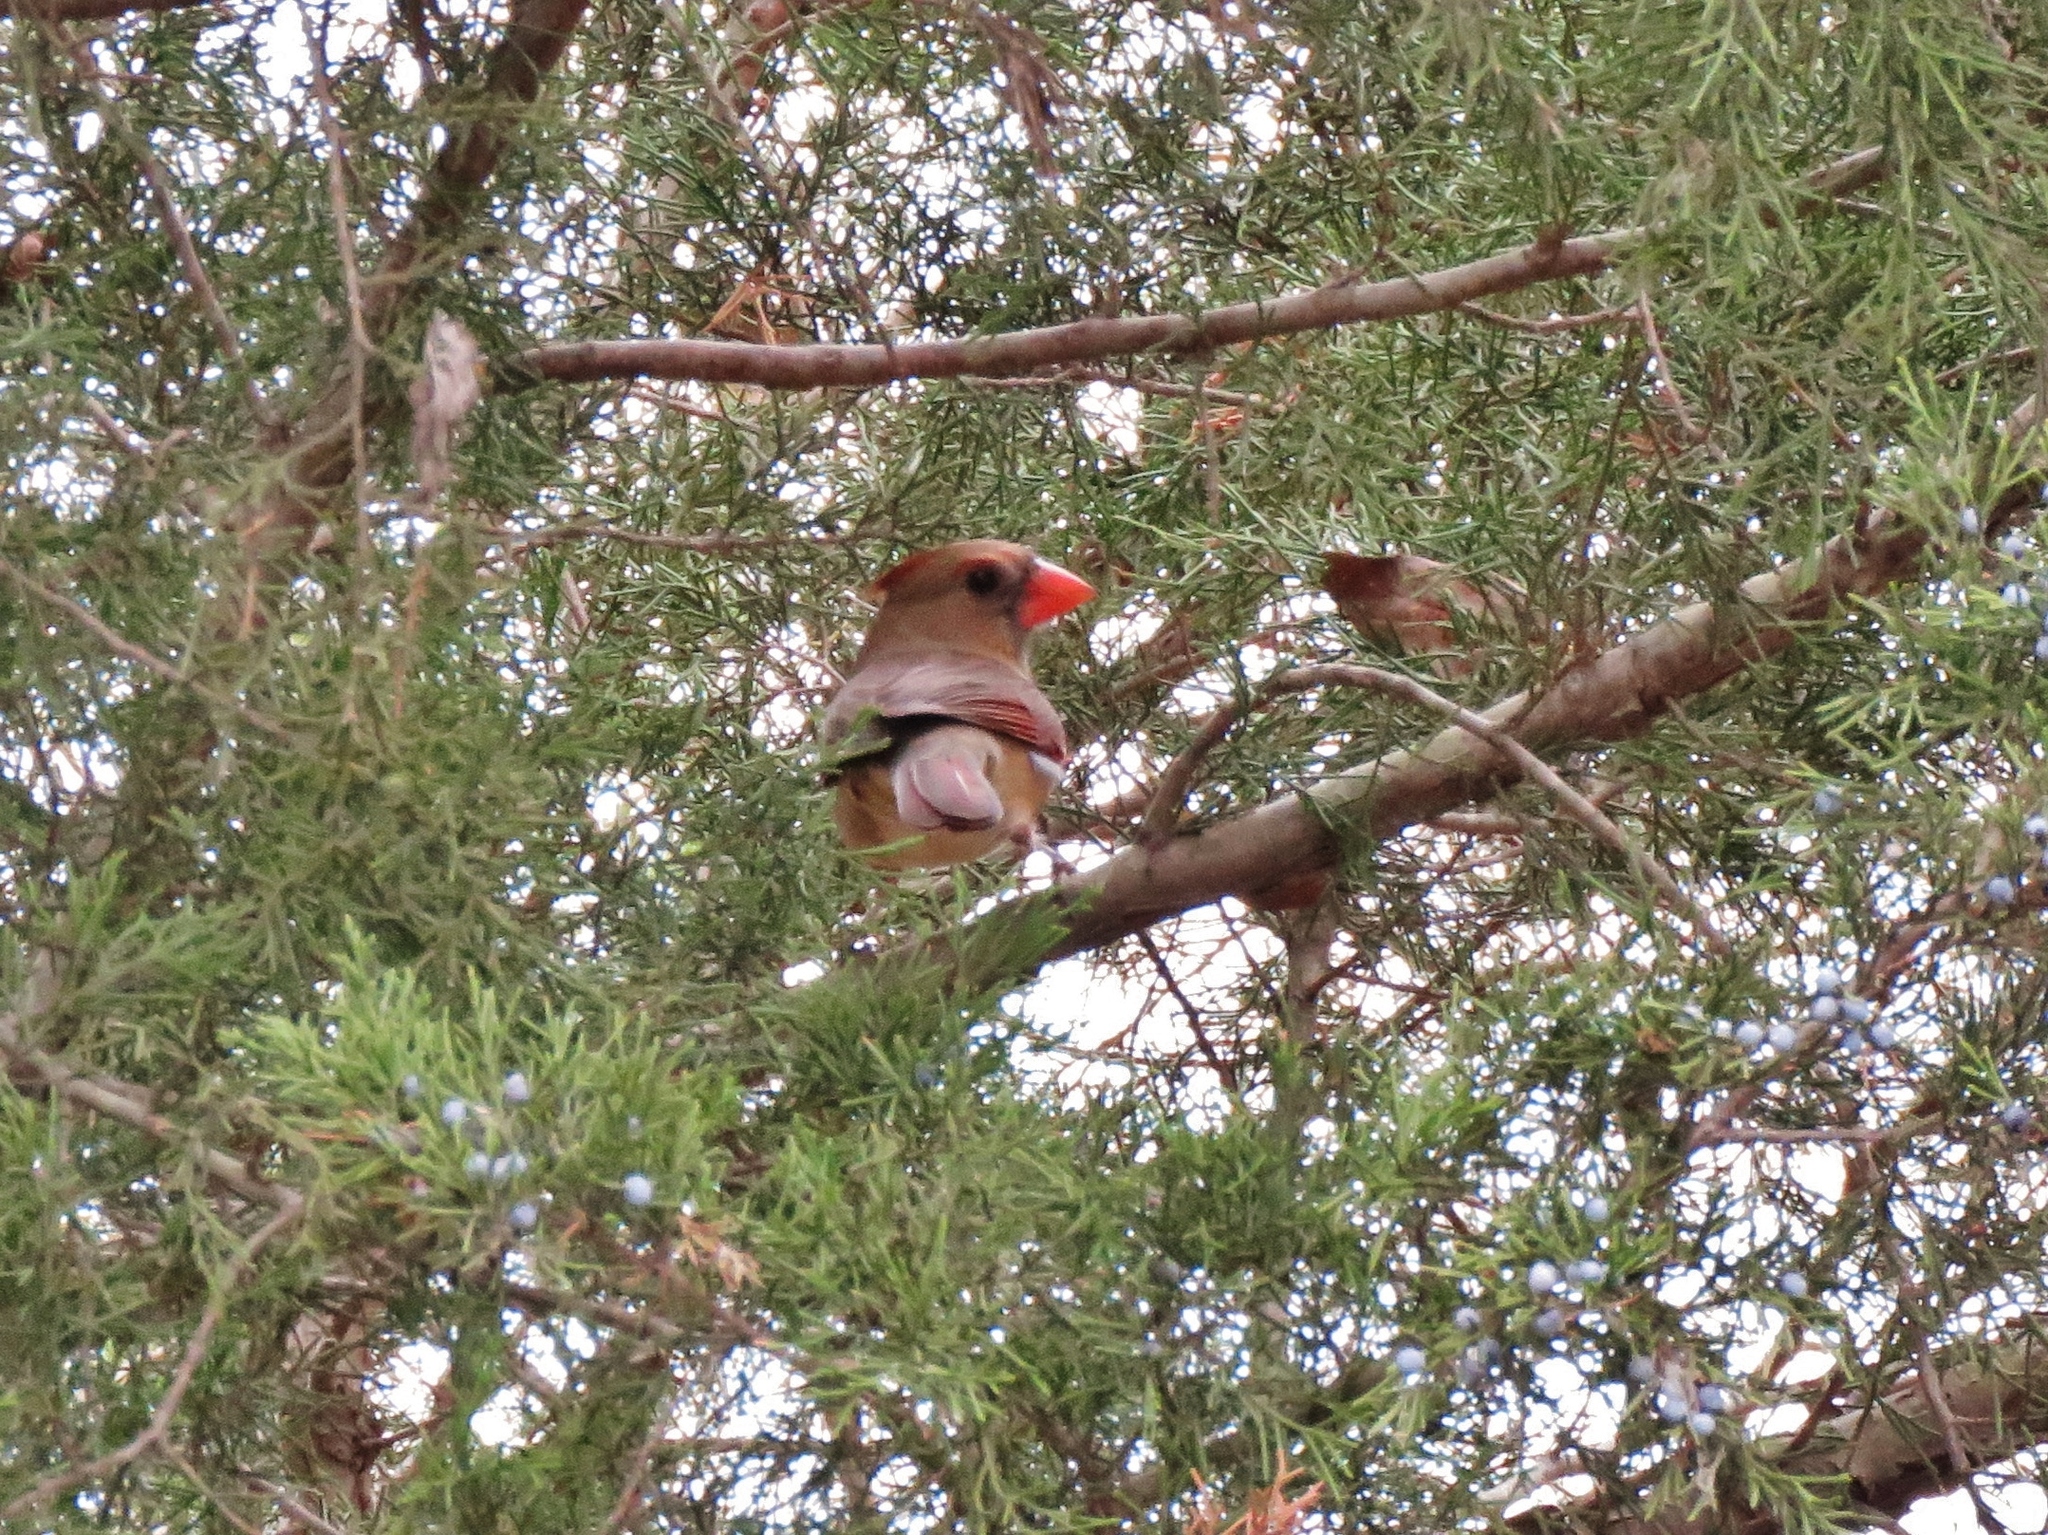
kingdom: Animalia
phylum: Chordata
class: Aves
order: Passeriformes
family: Cardinalidae
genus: Cardinalis
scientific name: Cardinalis cardinalis
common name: Northern cardinal
